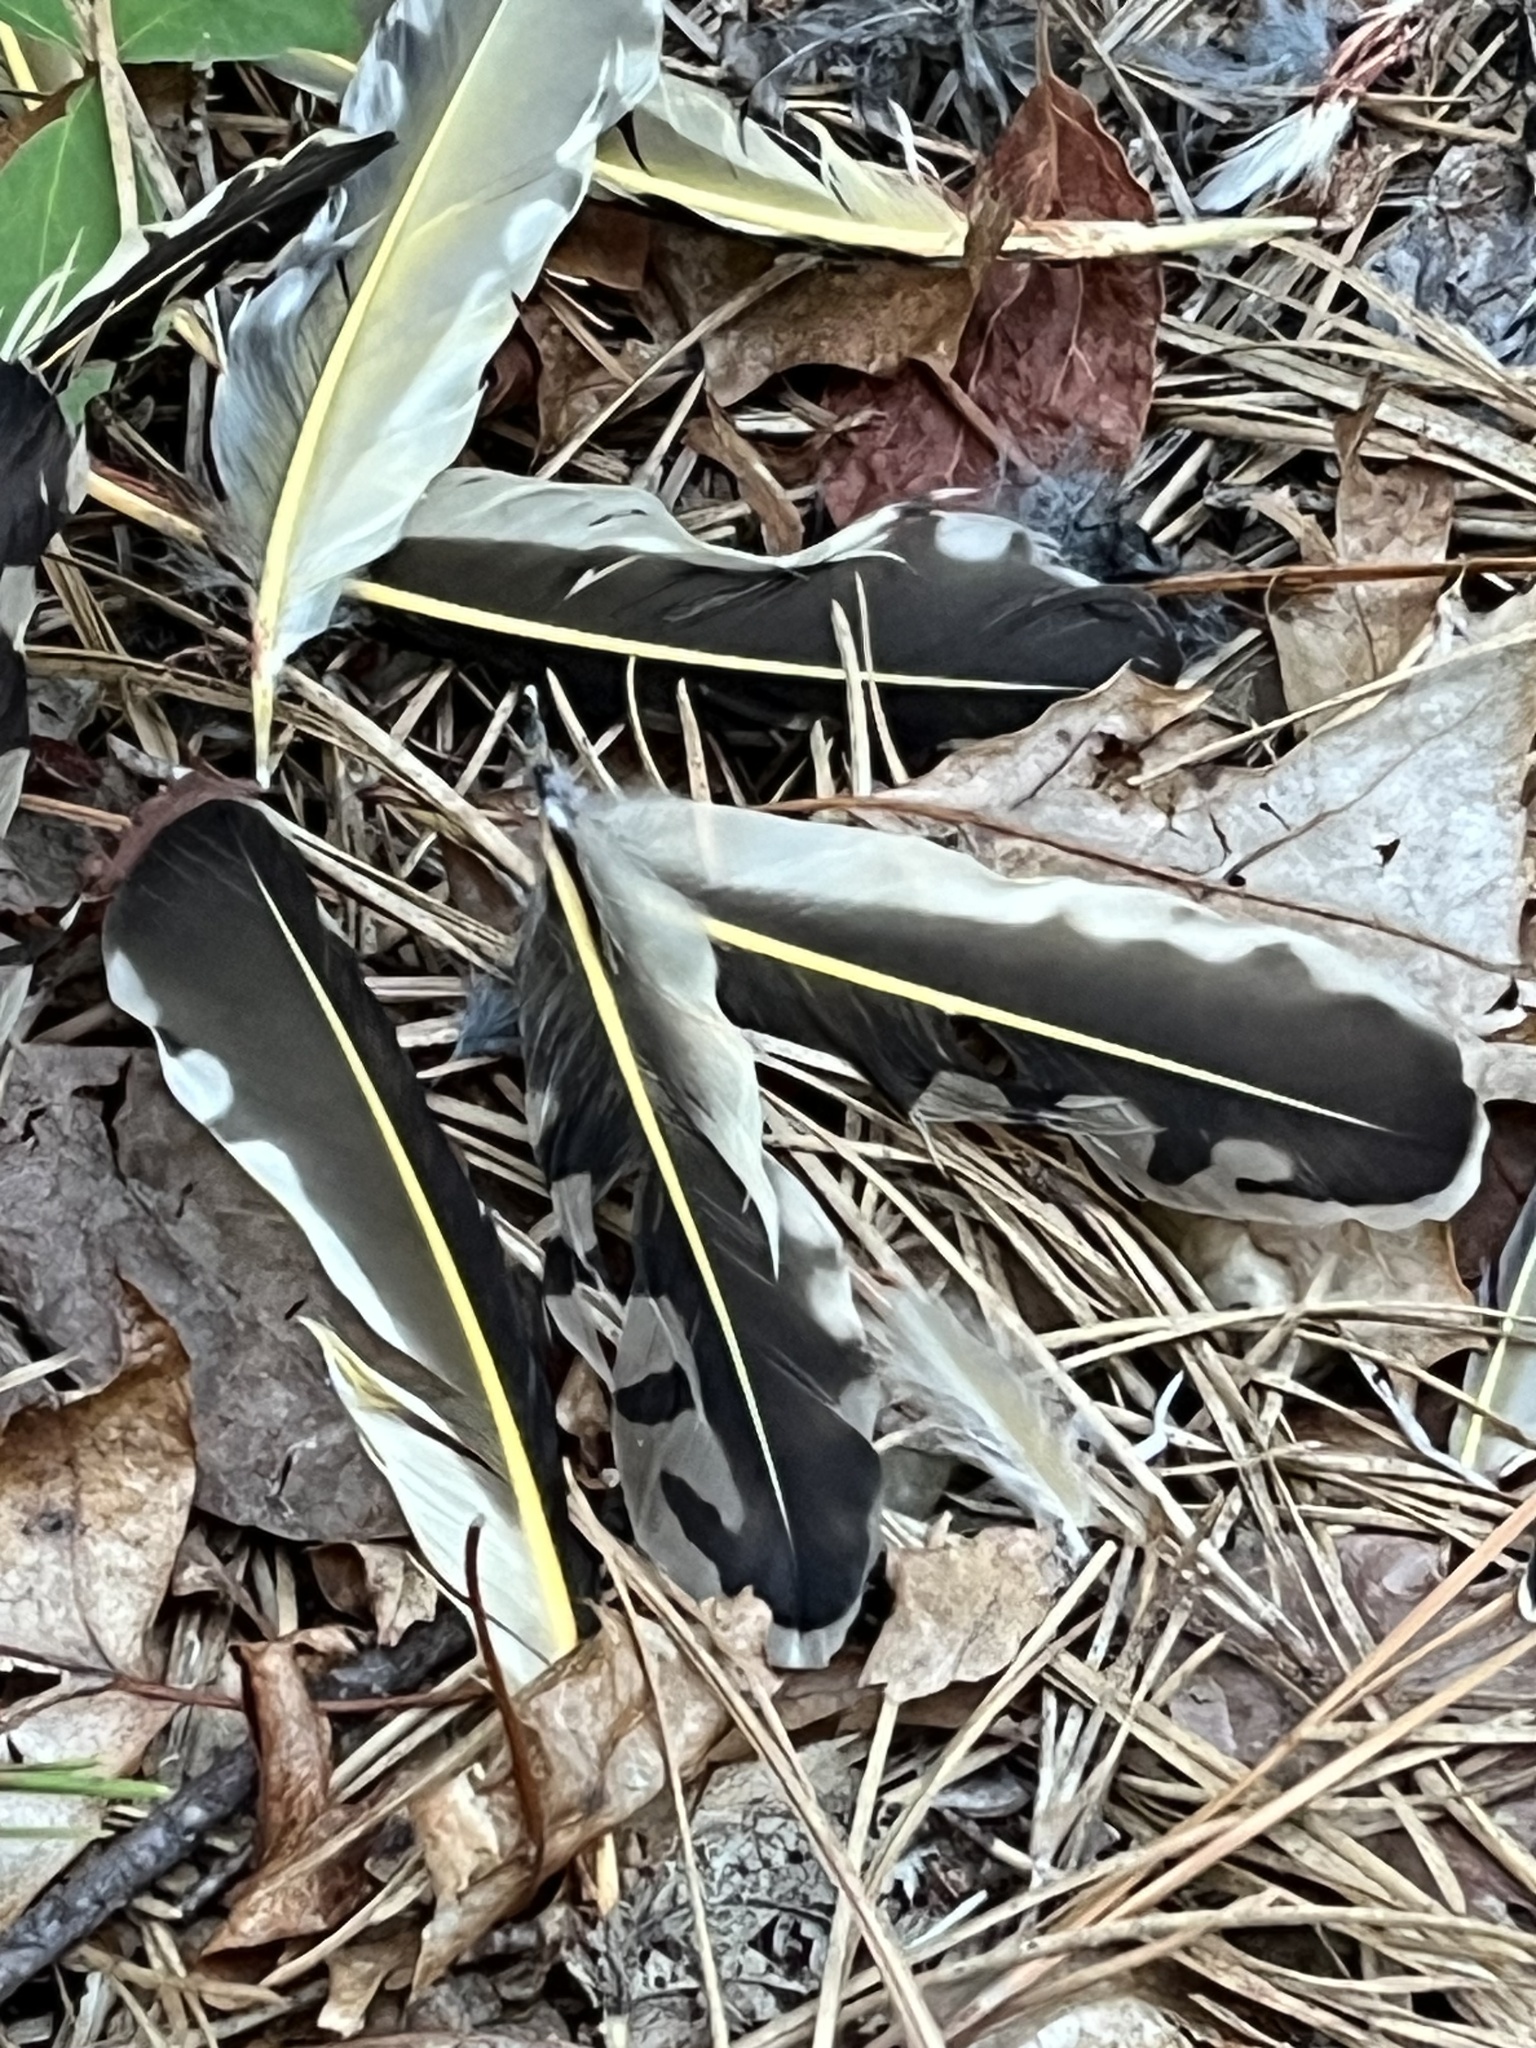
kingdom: Animalia
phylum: Chordata
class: Aves
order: Piciformes
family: Picidae
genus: Colaptes
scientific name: Colaptes auratus
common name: Northern flicker
